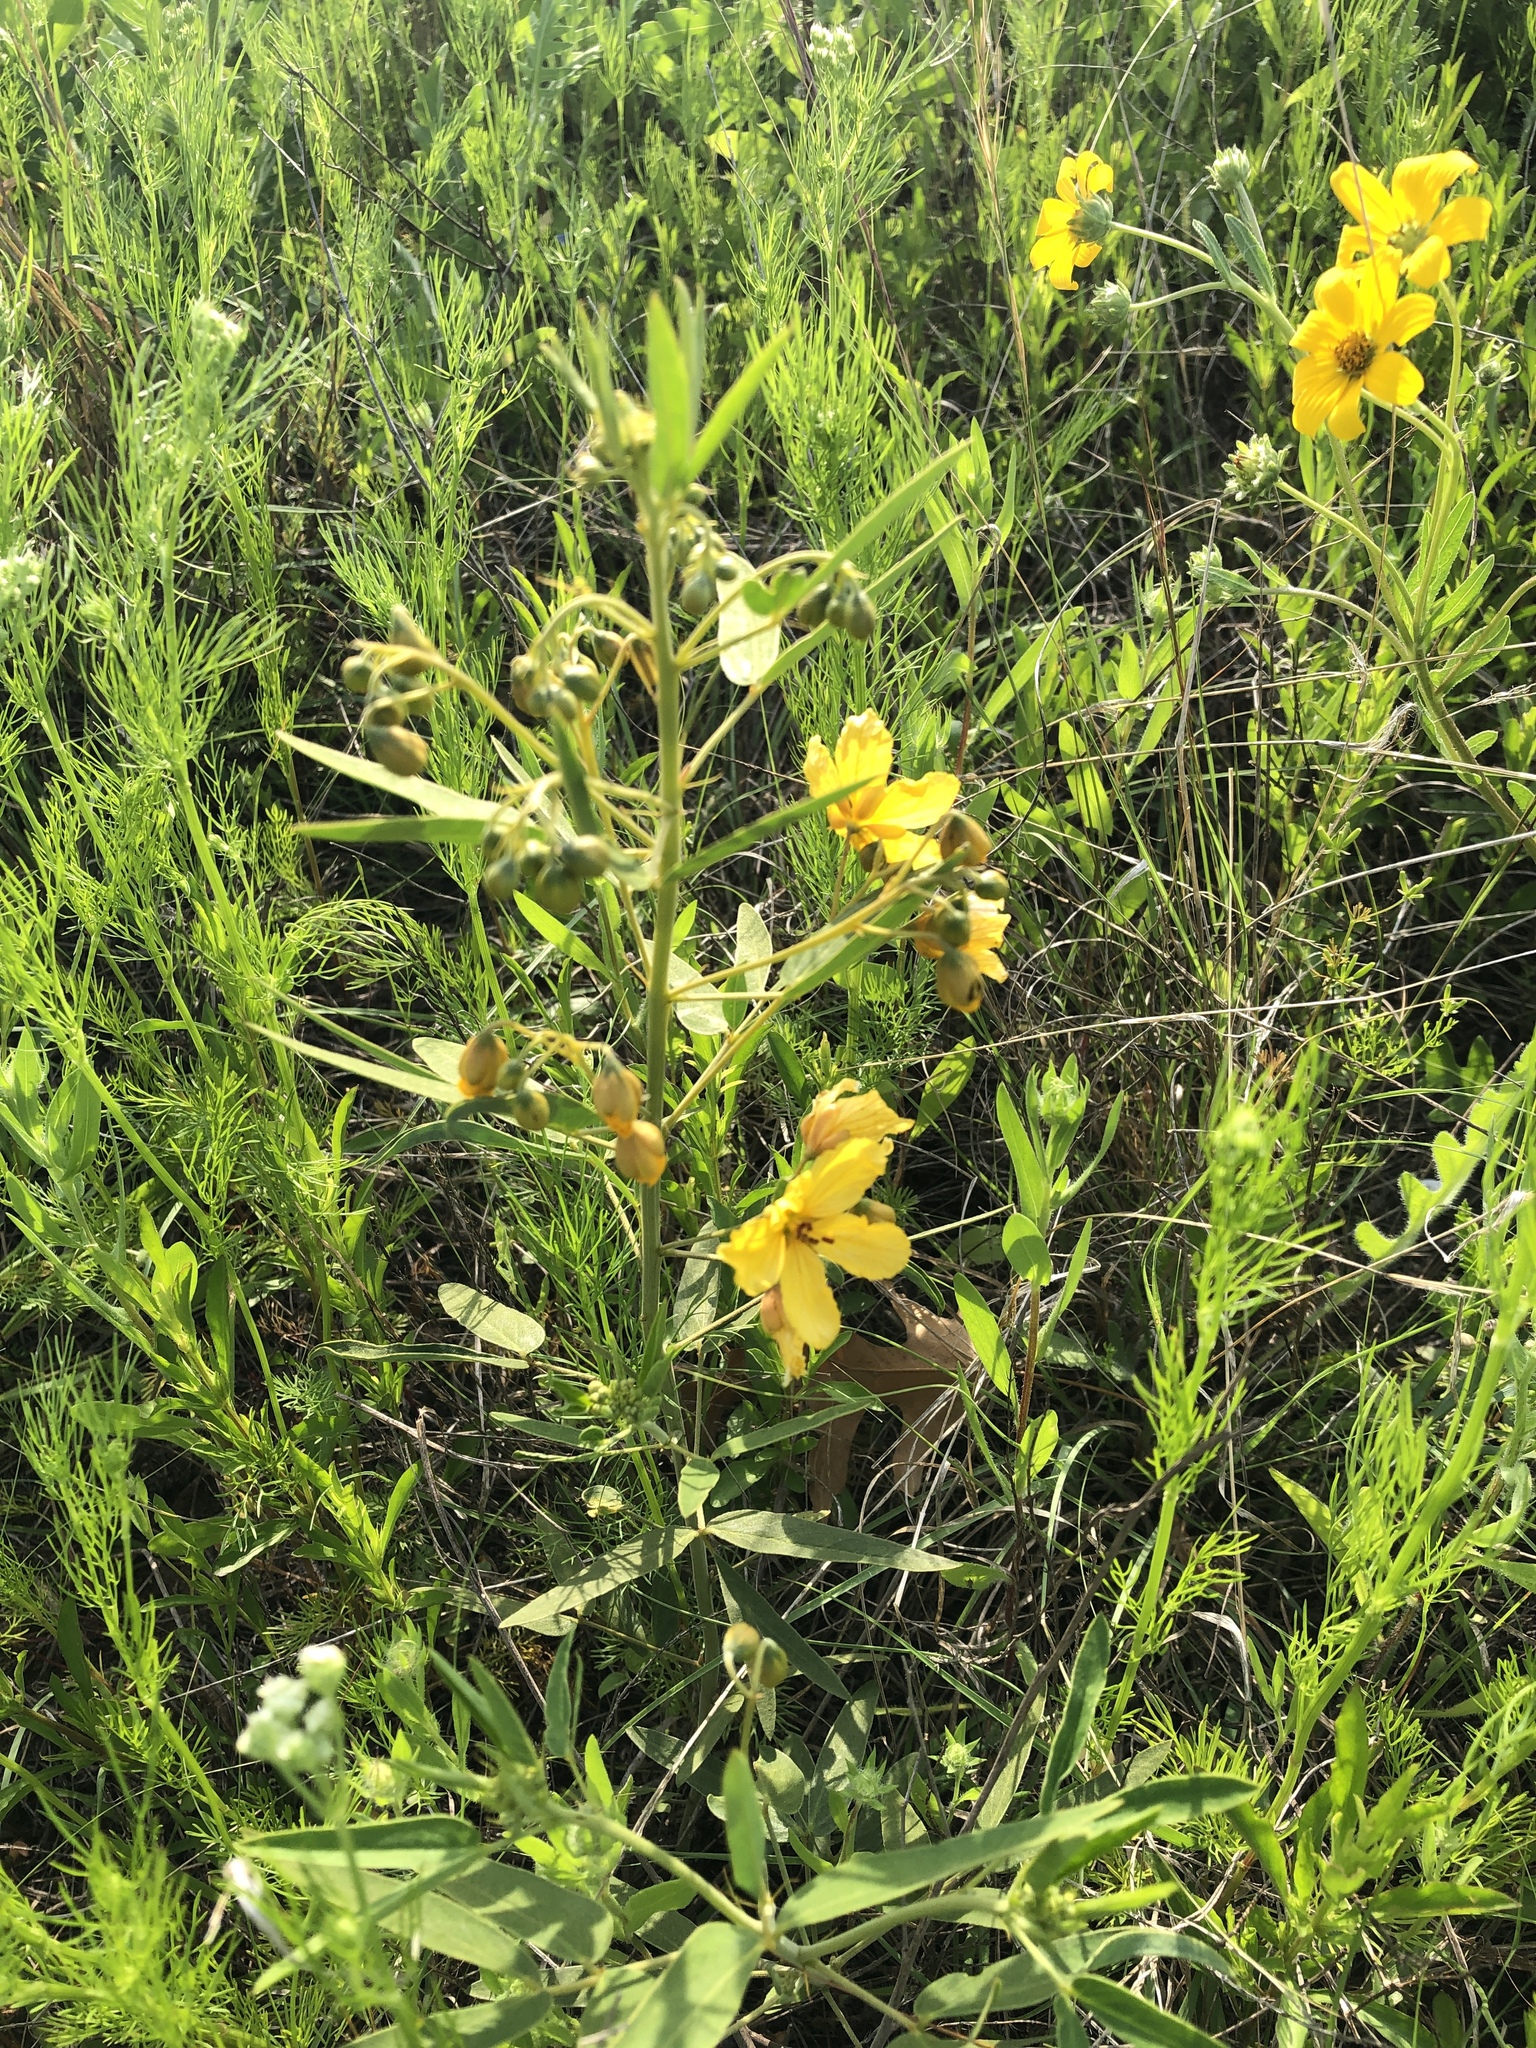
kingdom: Plantae
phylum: Tracheophyta
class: Magnoliopsida
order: Fabales
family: Fabaceae
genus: Senna
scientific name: Senna roemeriana
